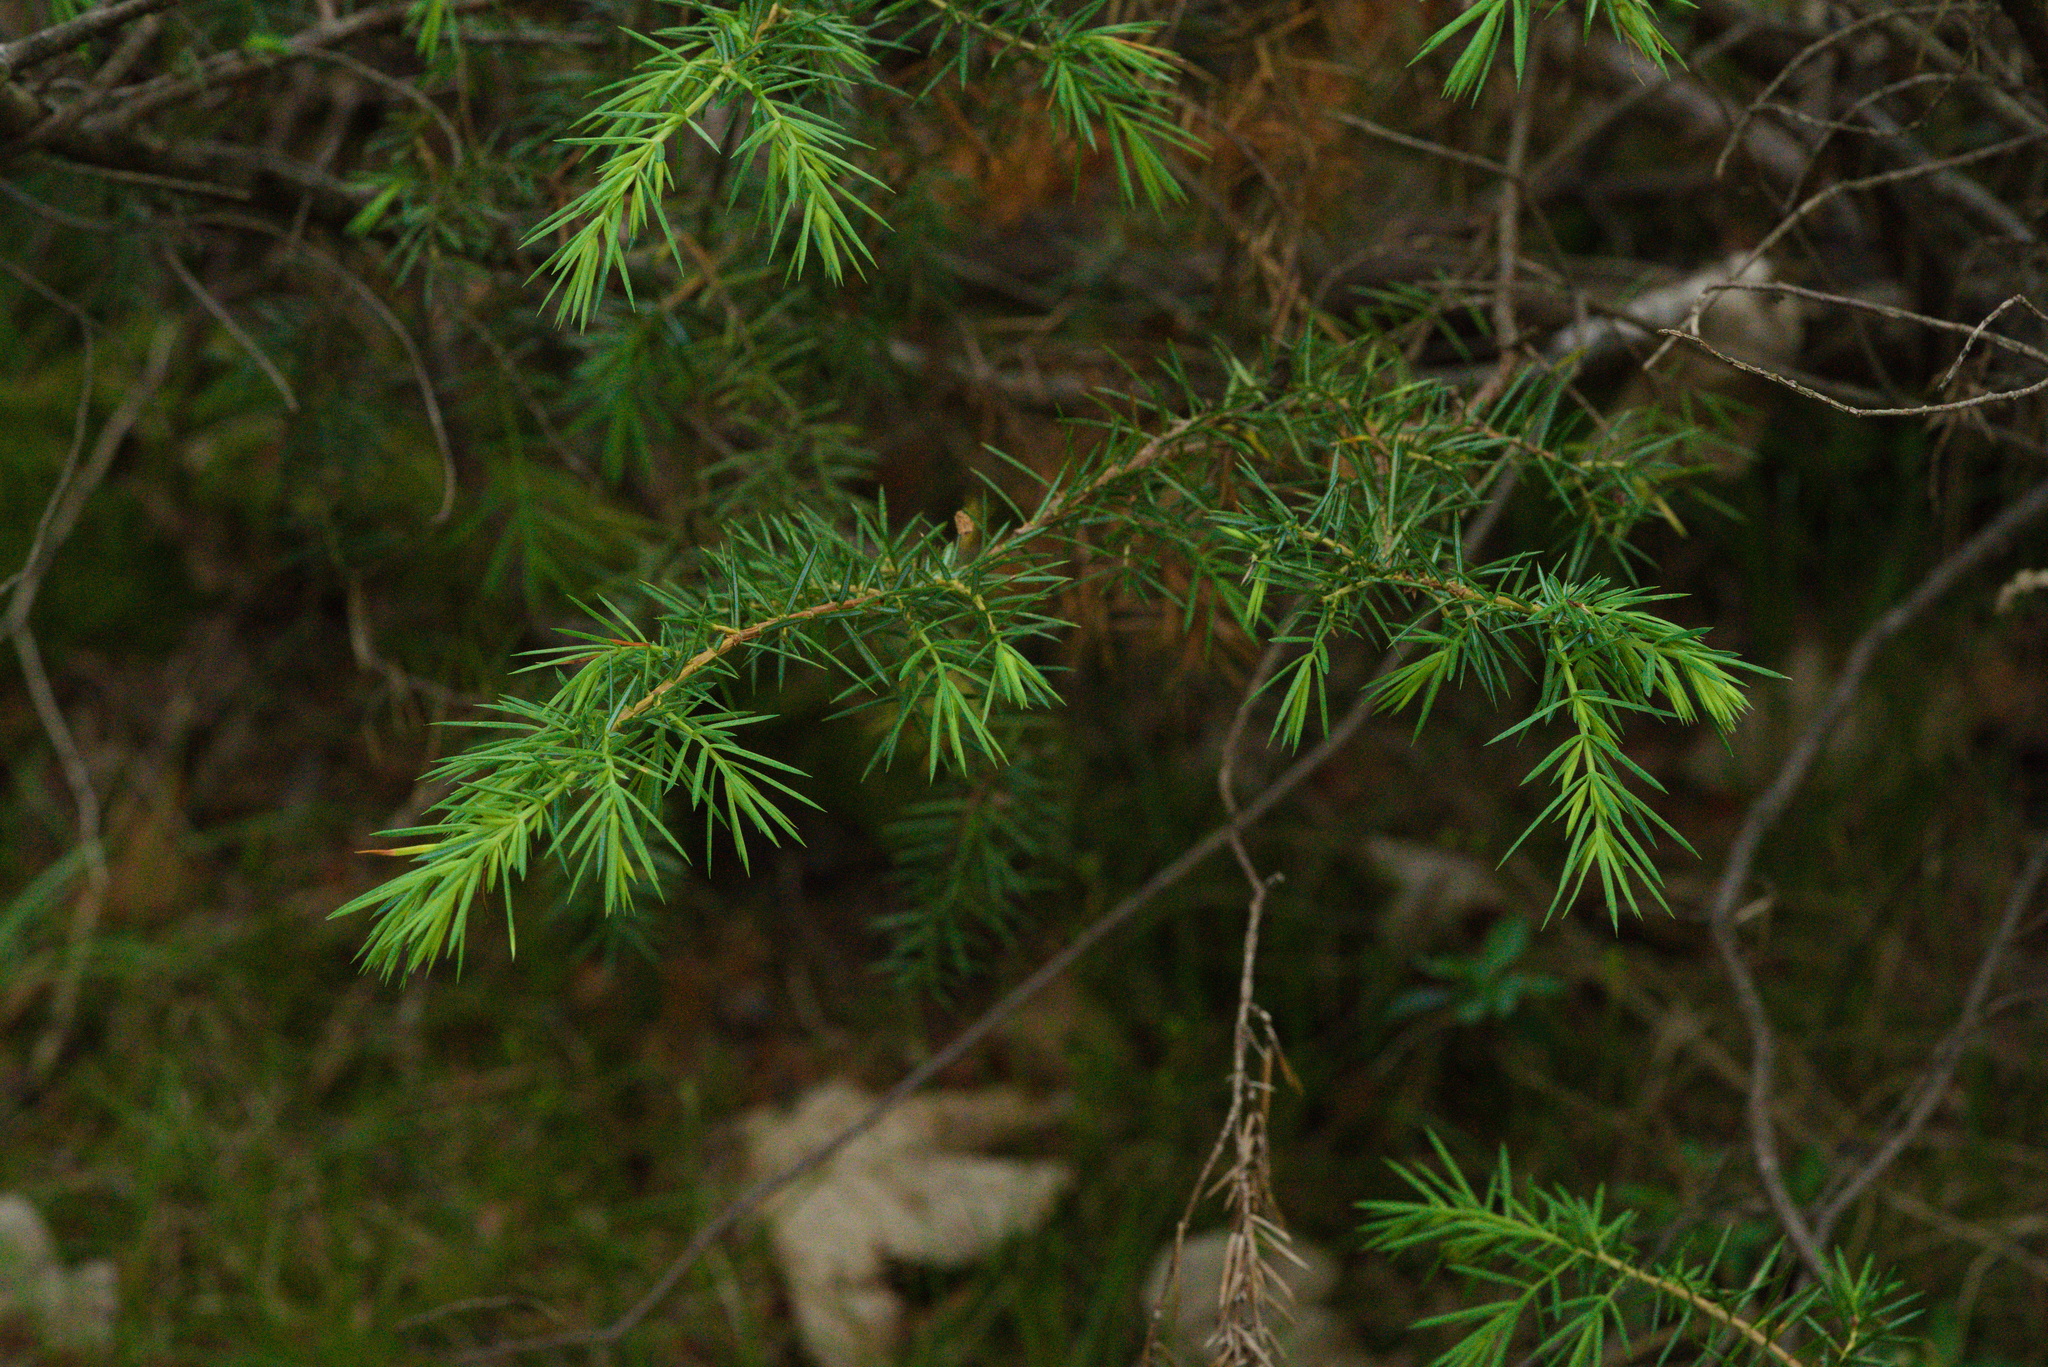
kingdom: Plantae
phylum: Tracheophyta
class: Pinopsida
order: Pinales
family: Cupressaceae
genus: Juniperus
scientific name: Juniperus communis
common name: Common juniper
